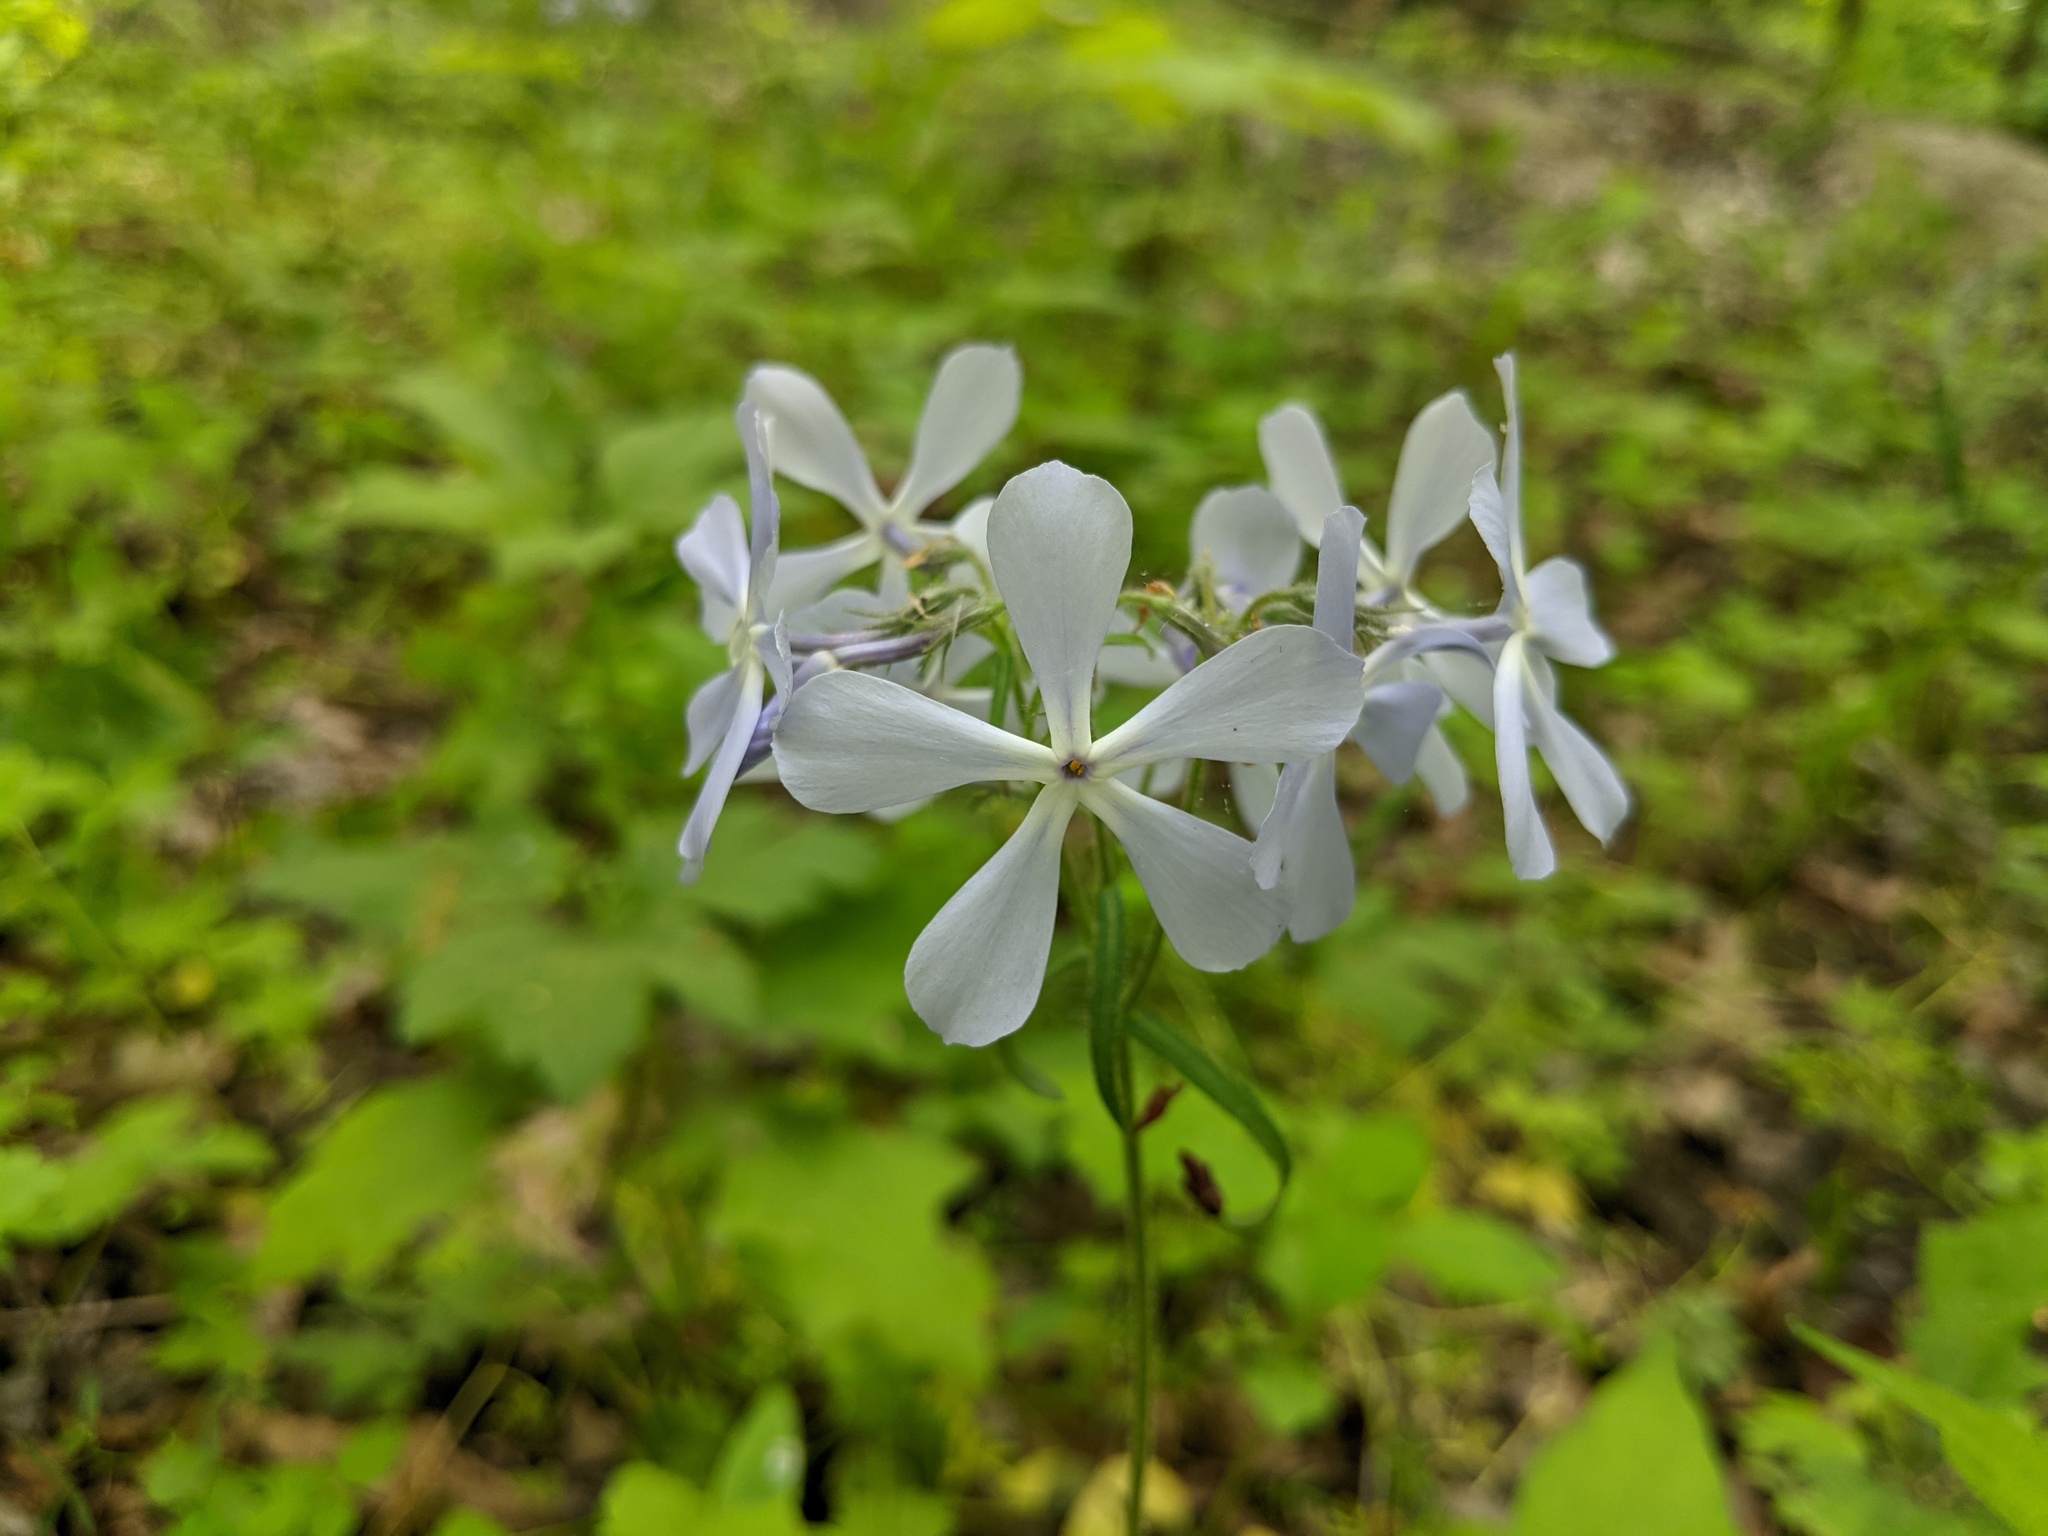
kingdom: Plantae
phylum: Tracheophyta
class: Magnoliopsida
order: Ericales
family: Polemoniaceae
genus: Phlox
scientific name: Phlox divaricata
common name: Blue phlox
